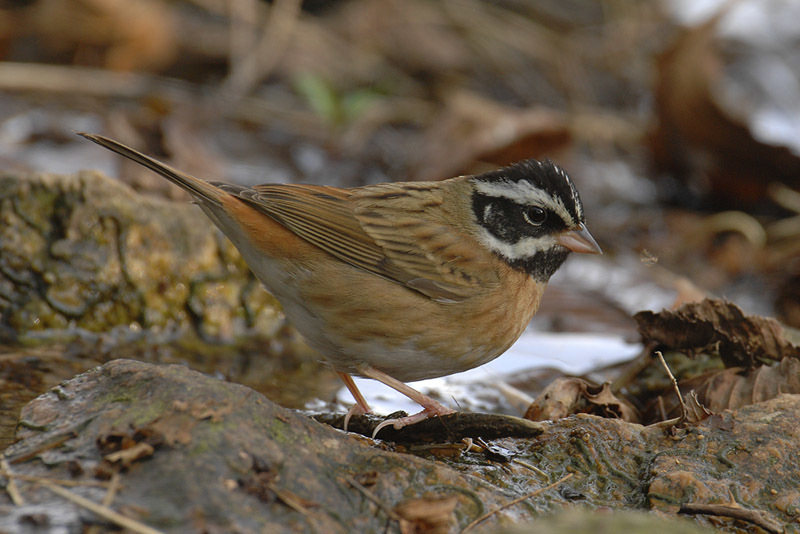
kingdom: Animalia
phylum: Chordata
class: Aves
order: Passeriformes
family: Emberizidae
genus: Emberiza
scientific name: Emberiza tristrami
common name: Tristram's bunting
